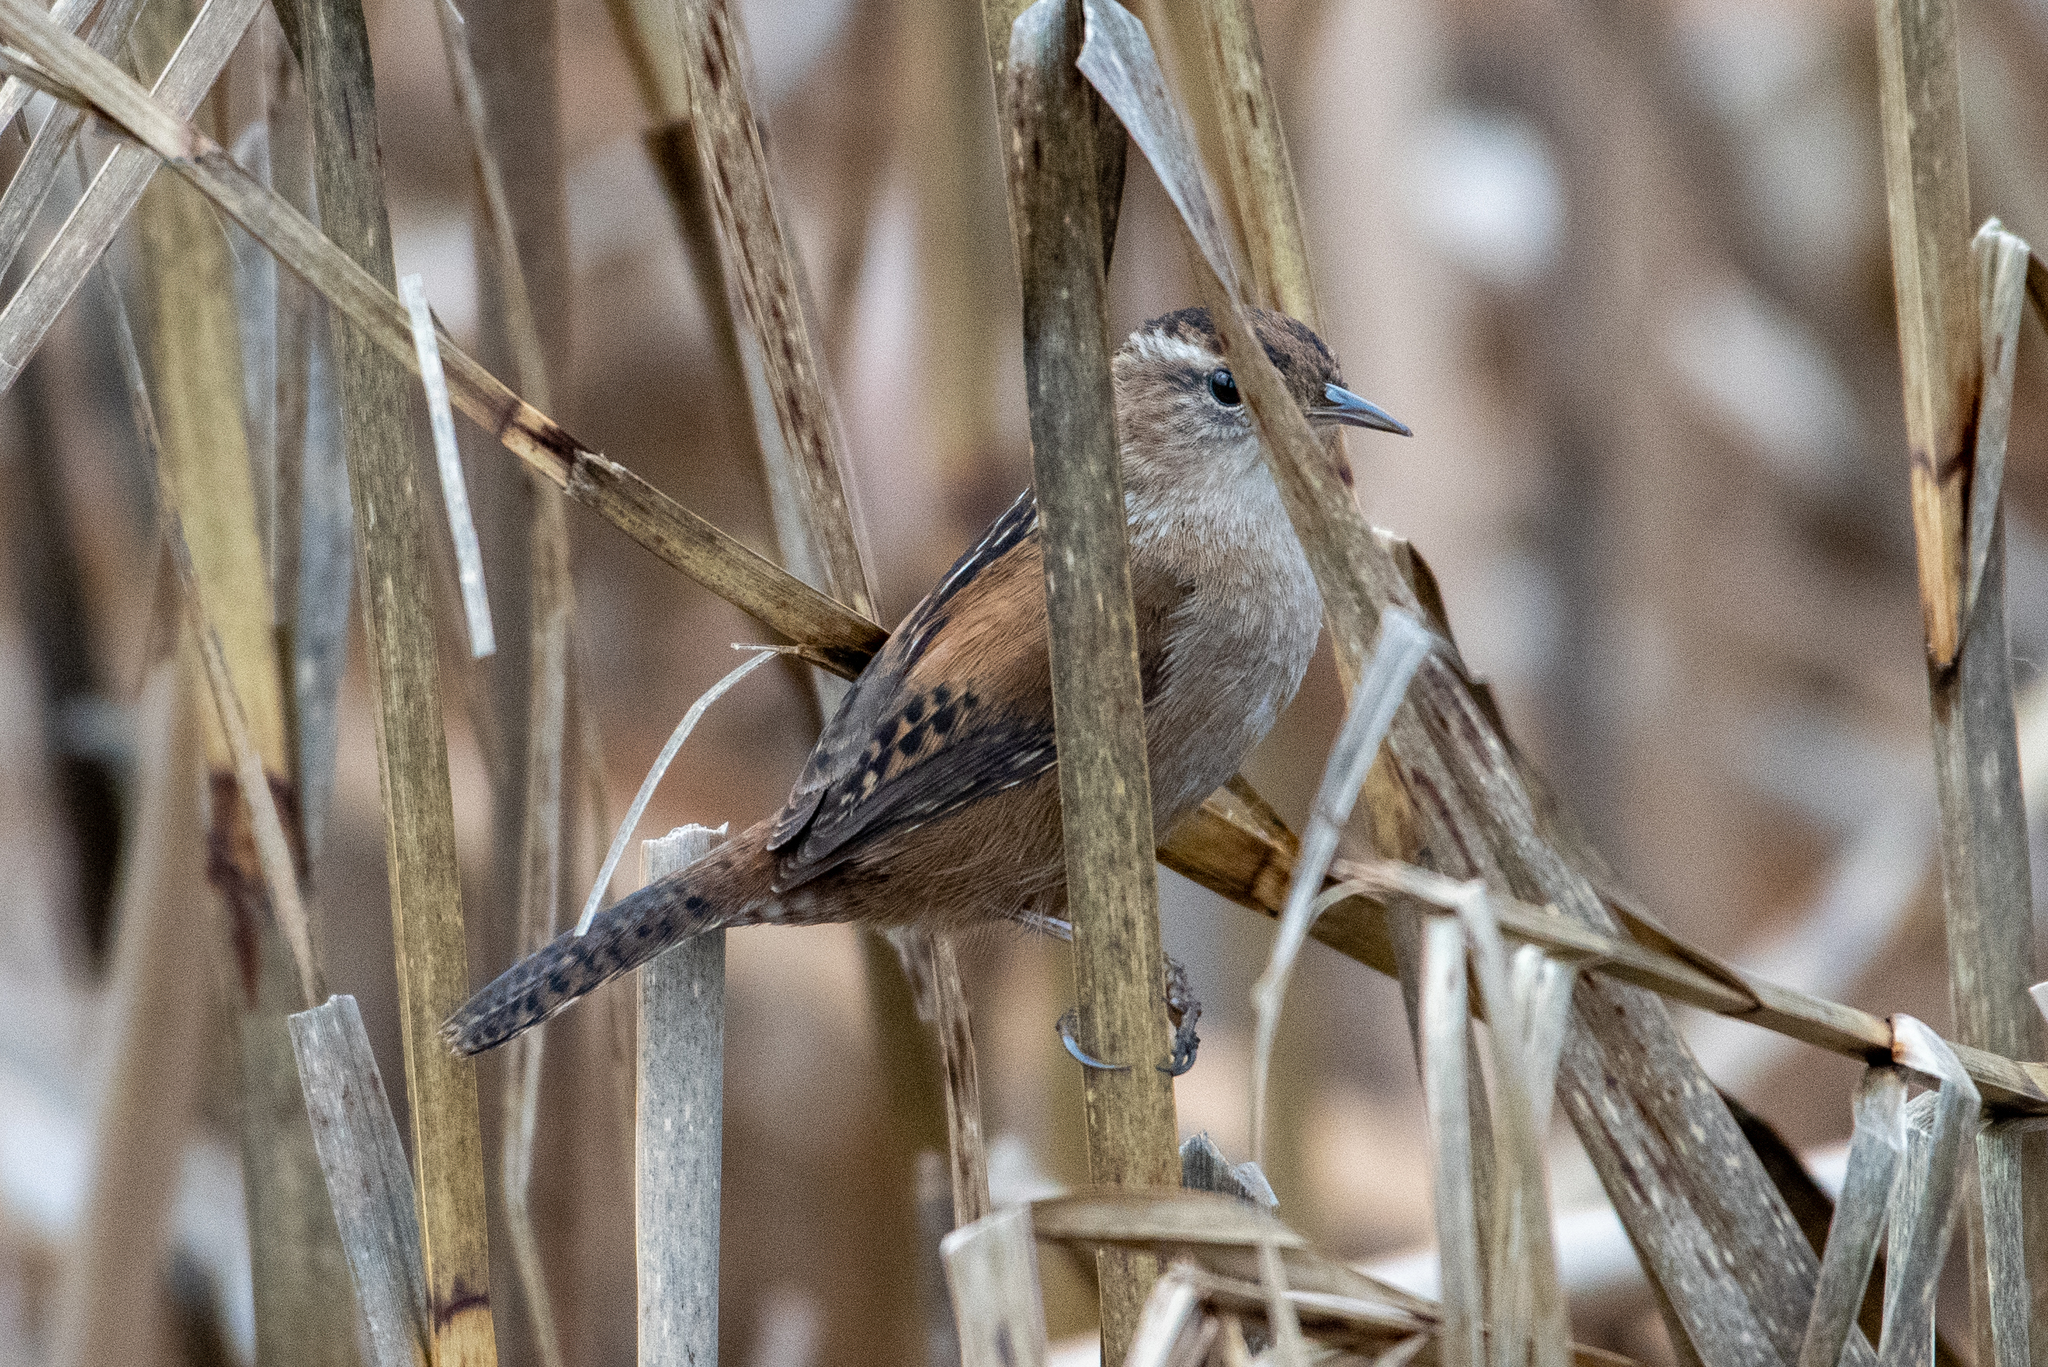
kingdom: Animalia
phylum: Chordata
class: Aves
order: Passeriformes
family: Troglodytidae
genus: Cistothorus
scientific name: Cistothorus palustris
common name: Marsh wren
